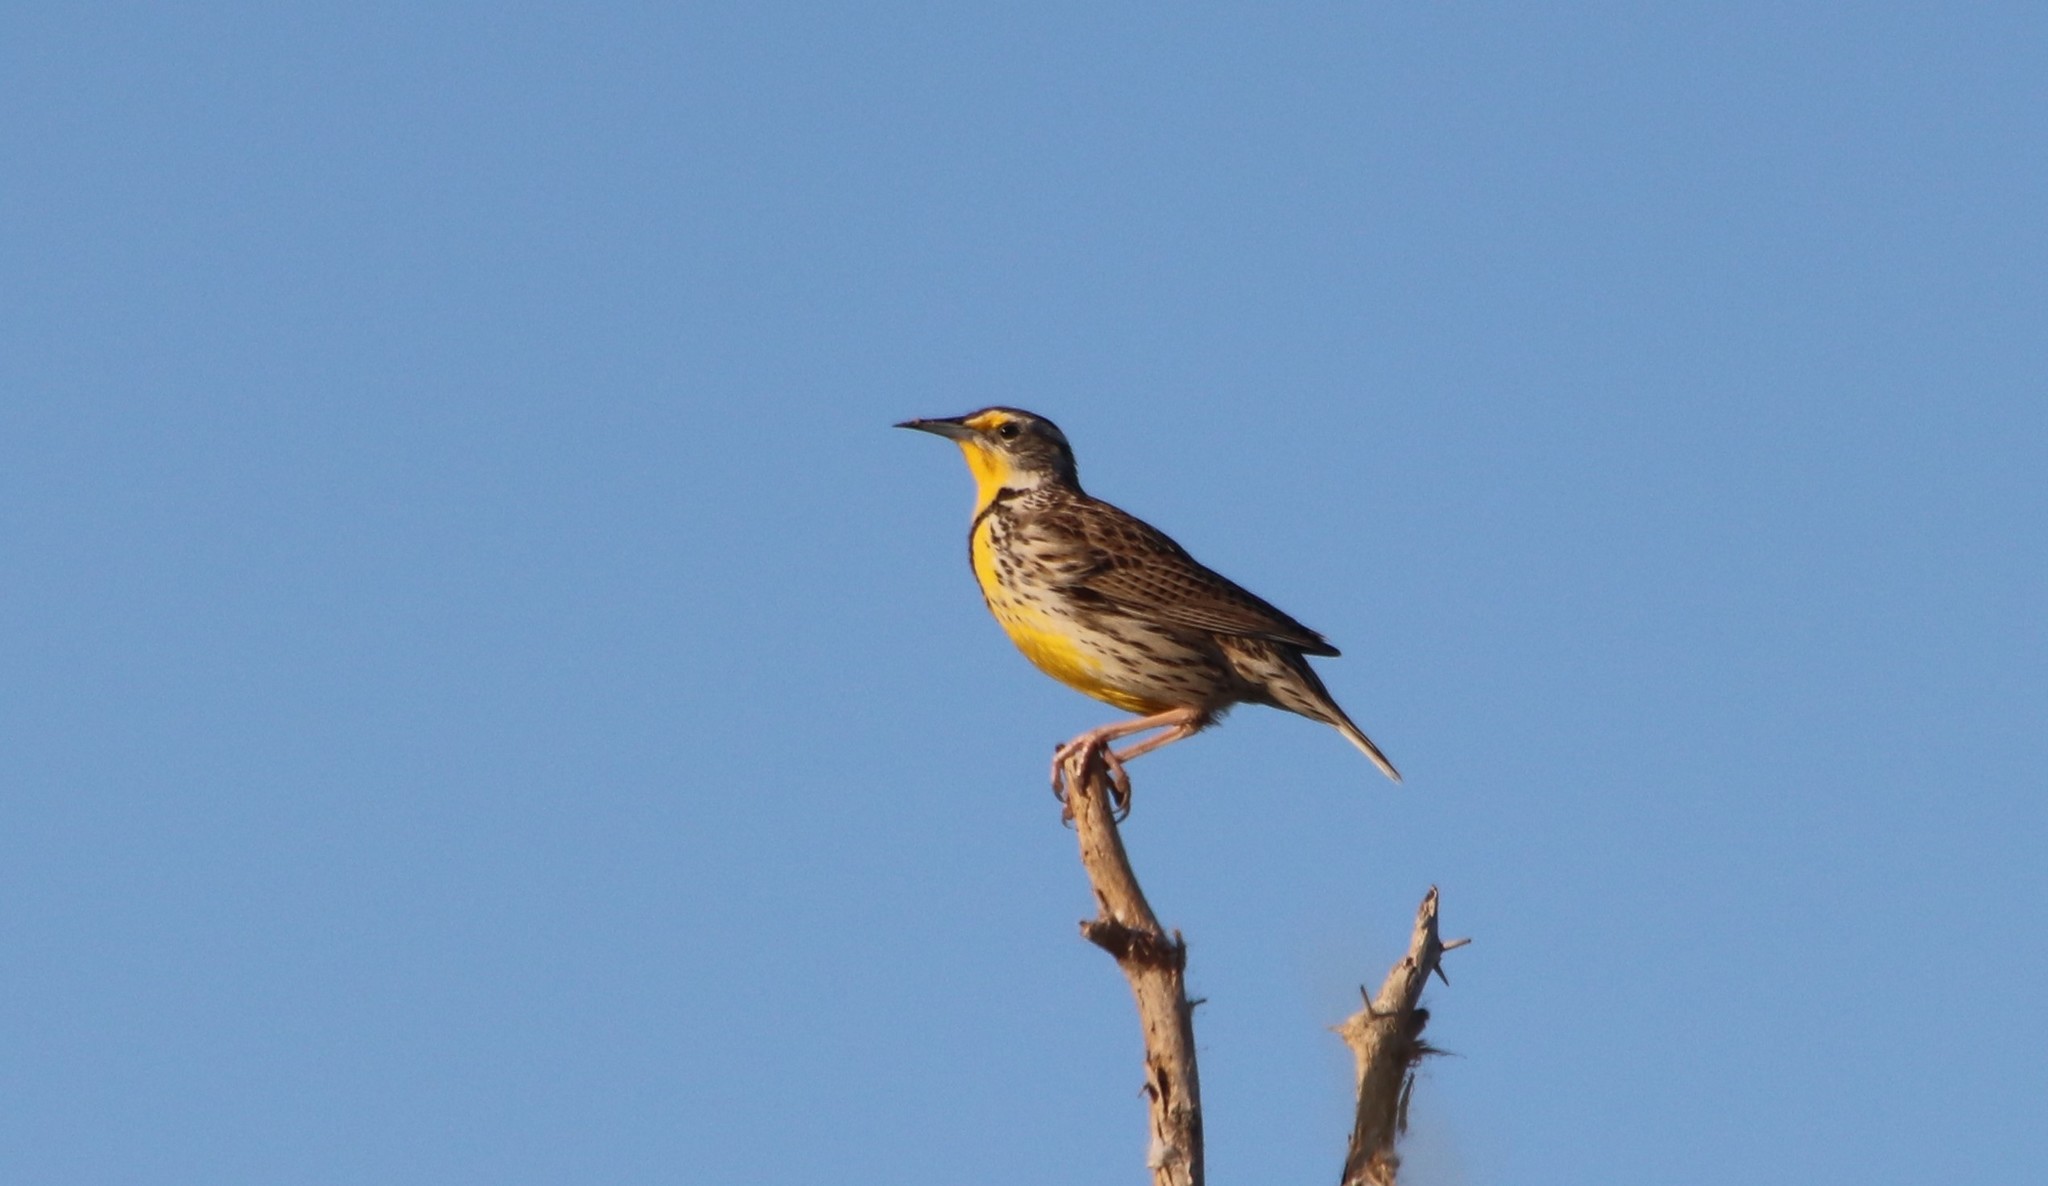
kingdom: Animalia
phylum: Chordata
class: Aves
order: Passeriformes
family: Icteridae
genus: Sturnella
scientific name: Sturnella neglecta
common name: Western meadowlark
